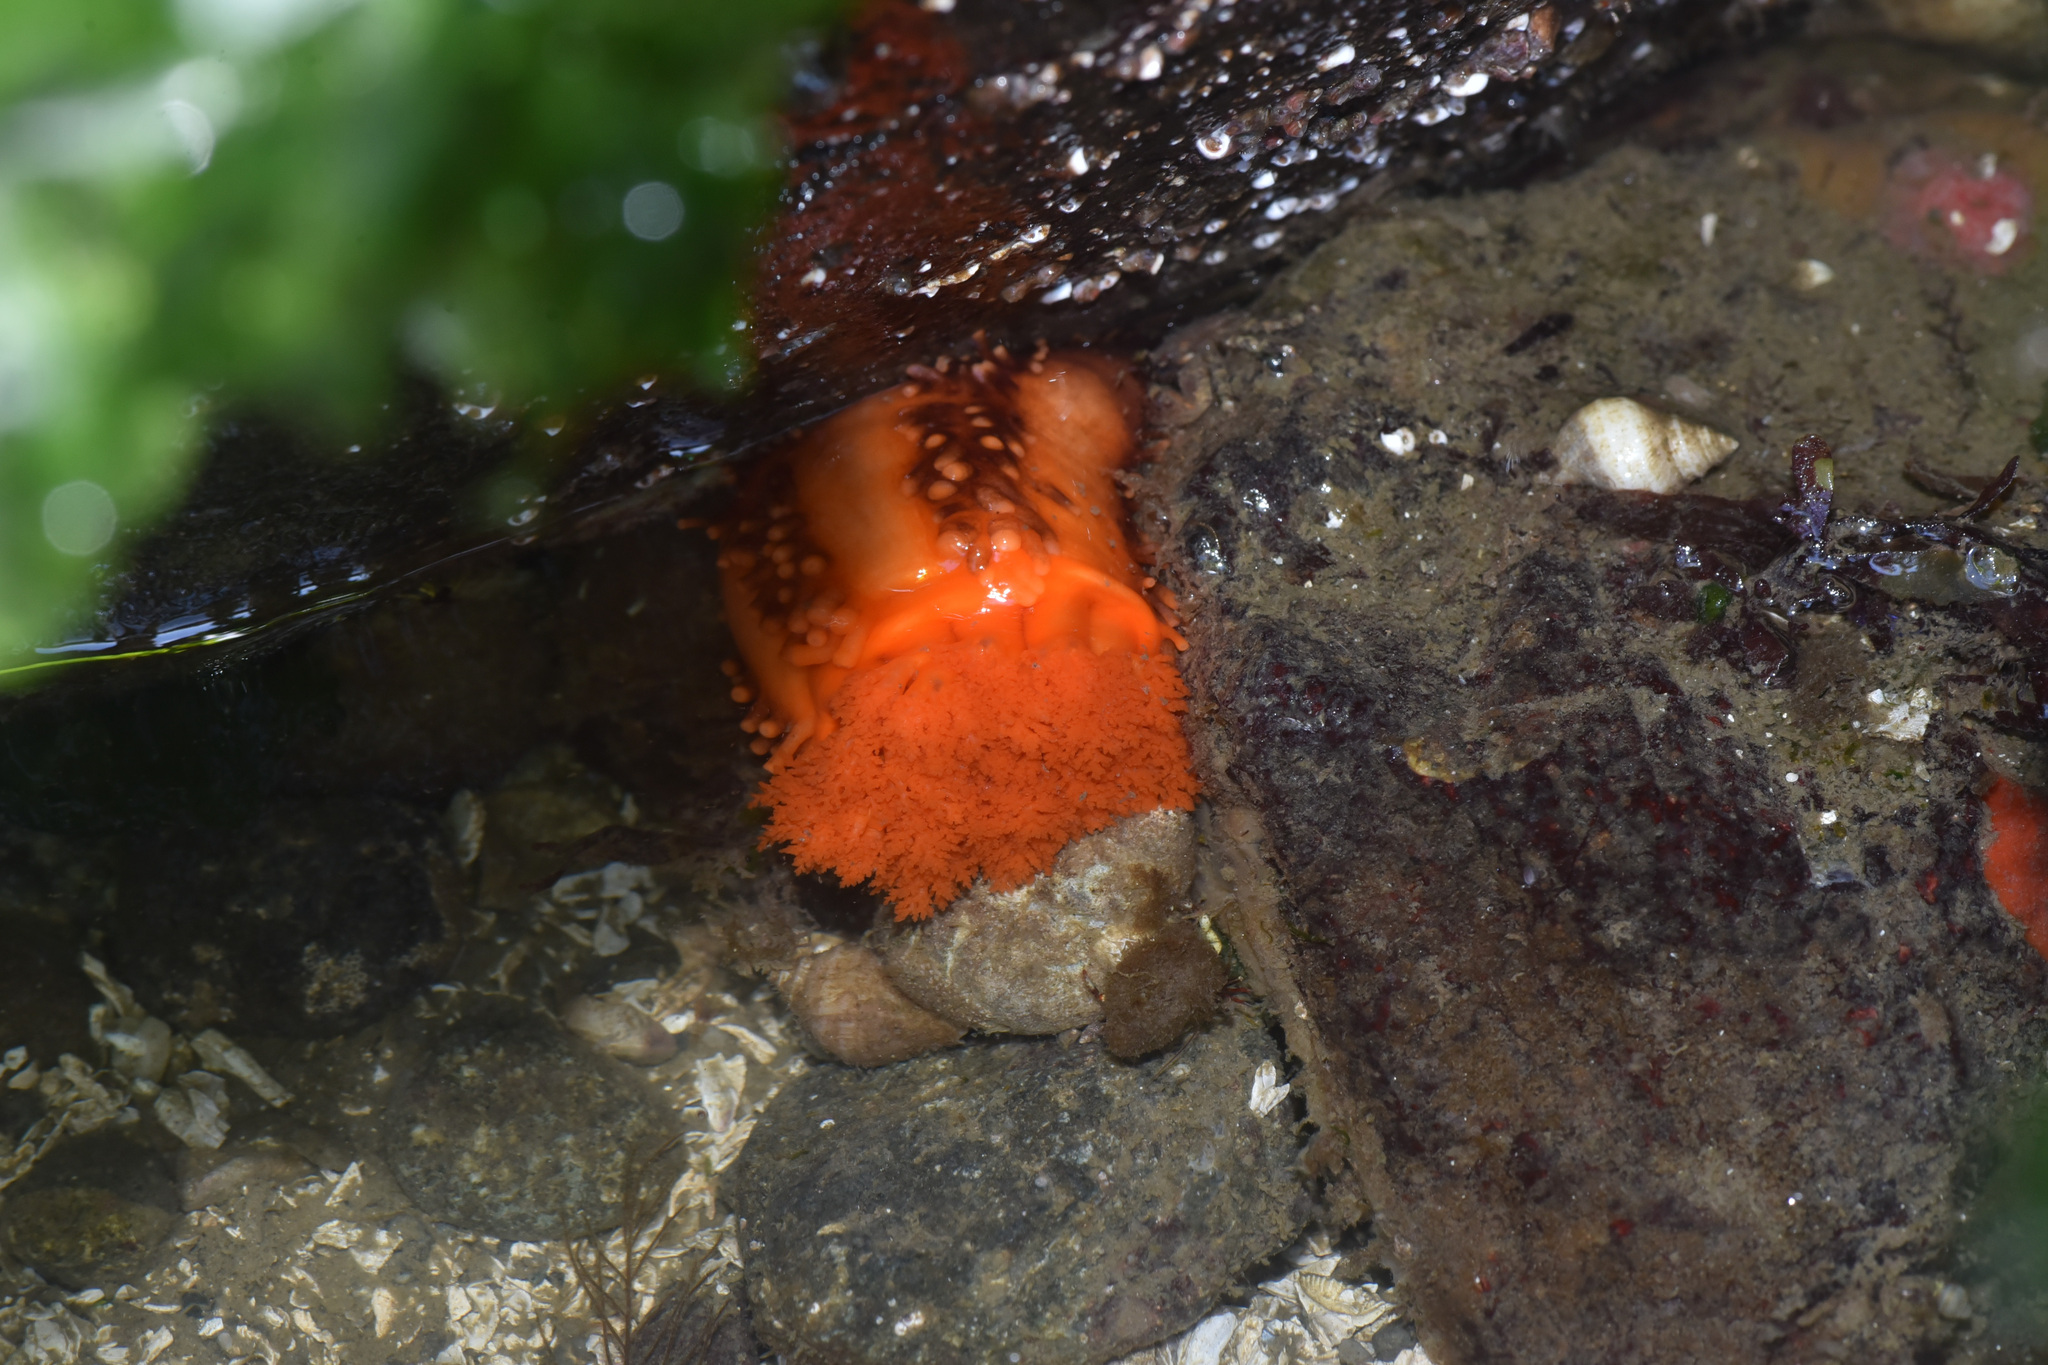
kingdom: Animalia
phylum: Echinodermata
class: Holothuroidea
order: Dendrochirotida
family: Cucumariidae
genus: Cucumaria
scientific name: Cucumaria miniata
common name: Orange sea cucumber
